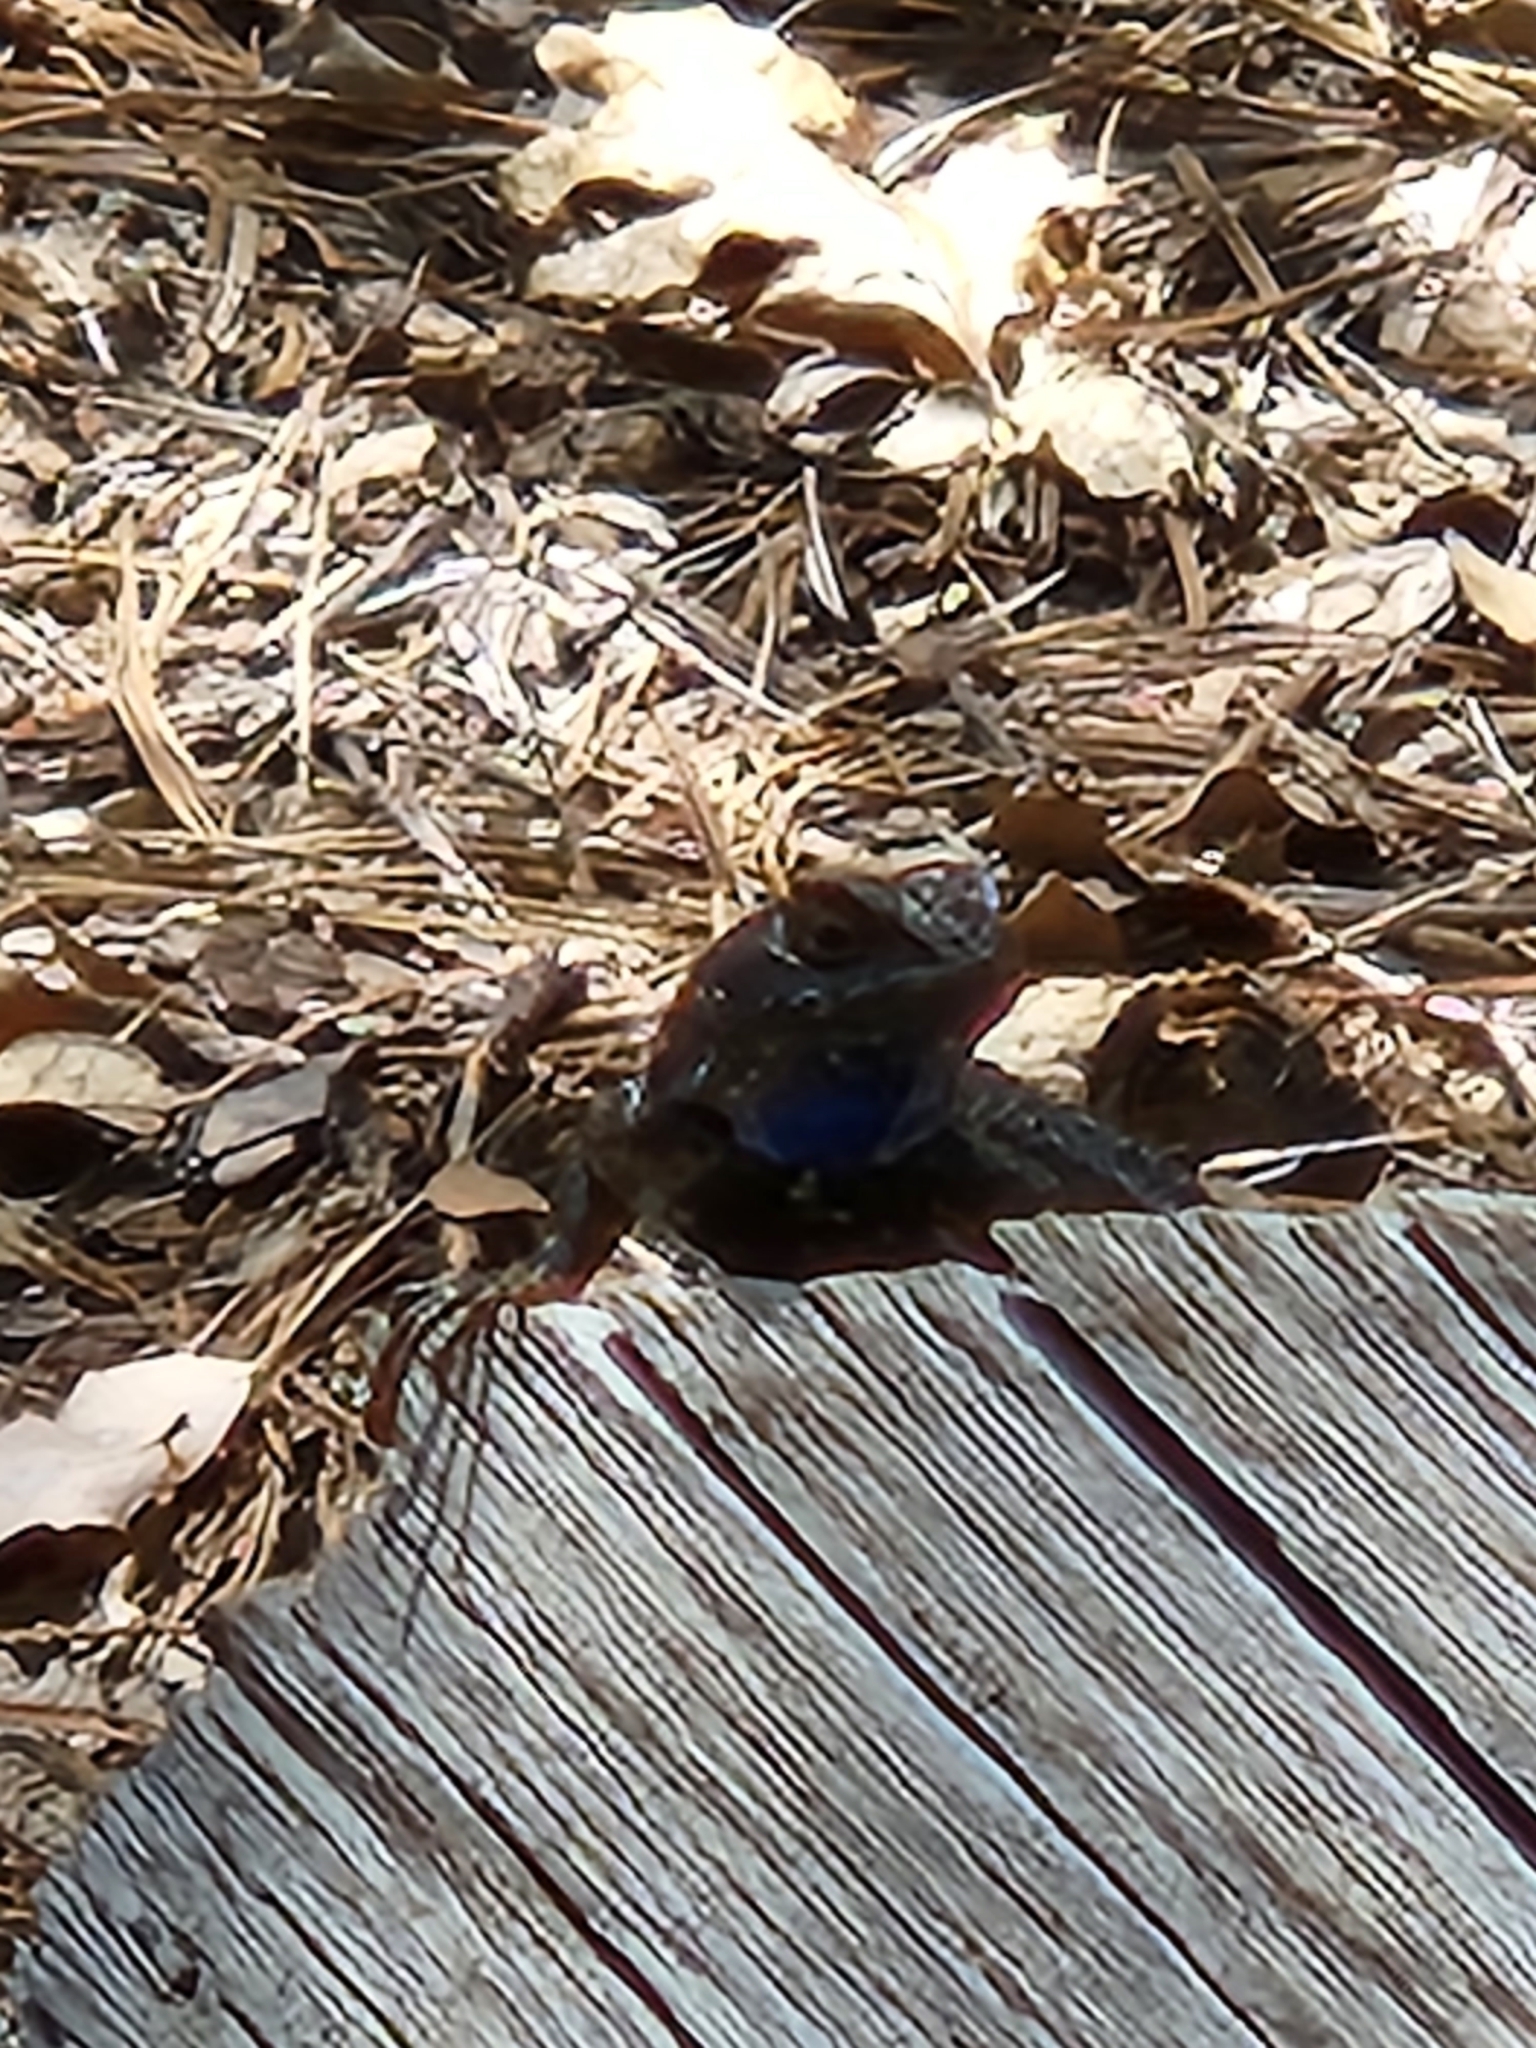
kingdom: Animalia
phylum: Chordata
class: Squamata
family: Phrynosomatidae
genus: Sceloporus
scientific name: Sceloporus occidentalis
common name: Western fence lizard
